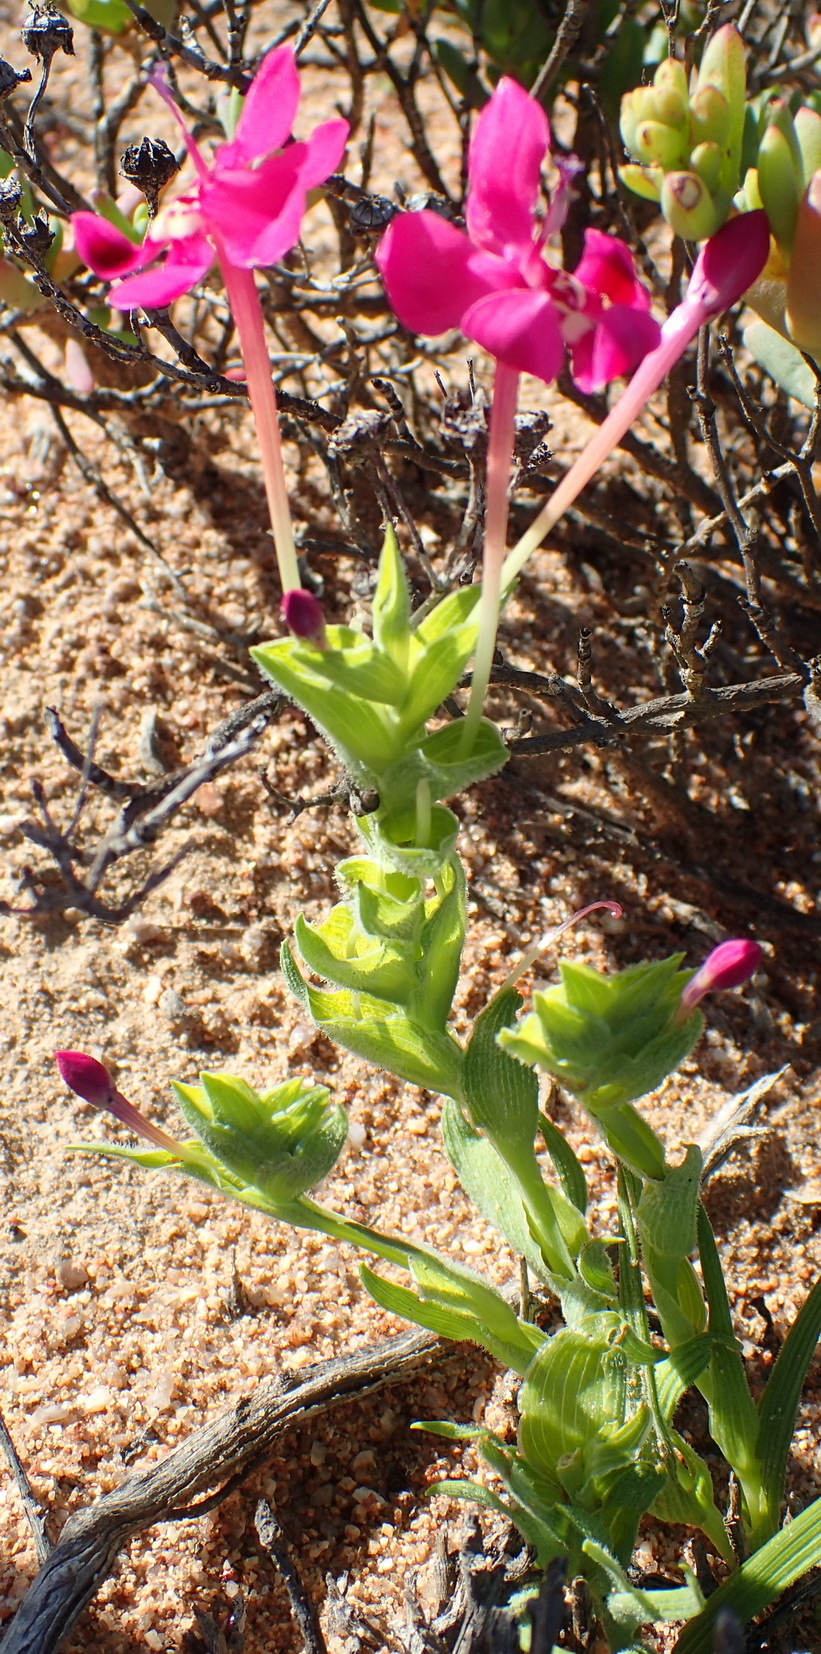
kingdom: Plantae
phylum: Tracheophyta
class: Liliopsida
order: Asparagales
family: Iridaceae
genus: Lapeirousia
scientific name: Lapeirousia silenoides
